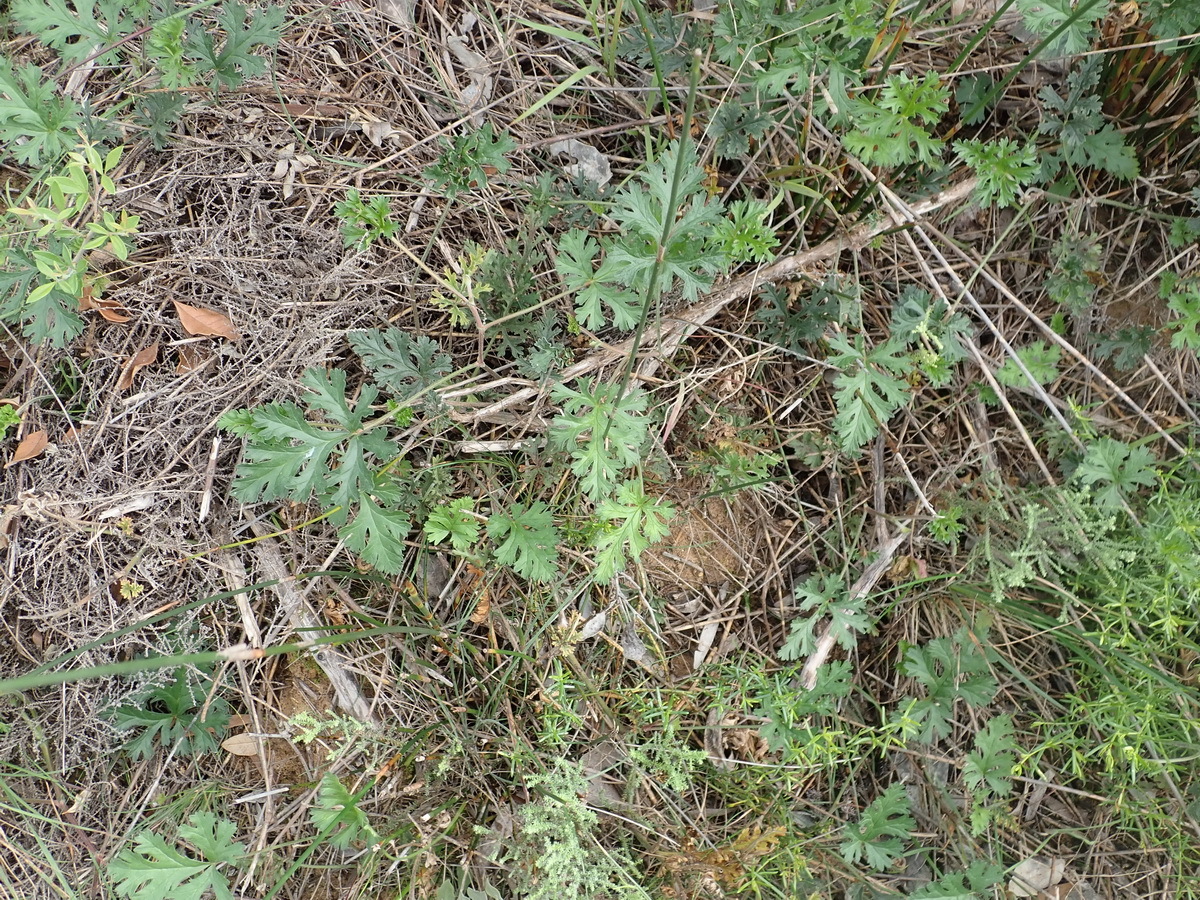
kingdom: Plantae
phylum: Tracheophyta
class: Magnoliopsida
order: Geraniales
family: Geraniaceae
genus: Pelargonium
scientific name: Pelargonium grossularioides
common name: Gooseberry geranium
